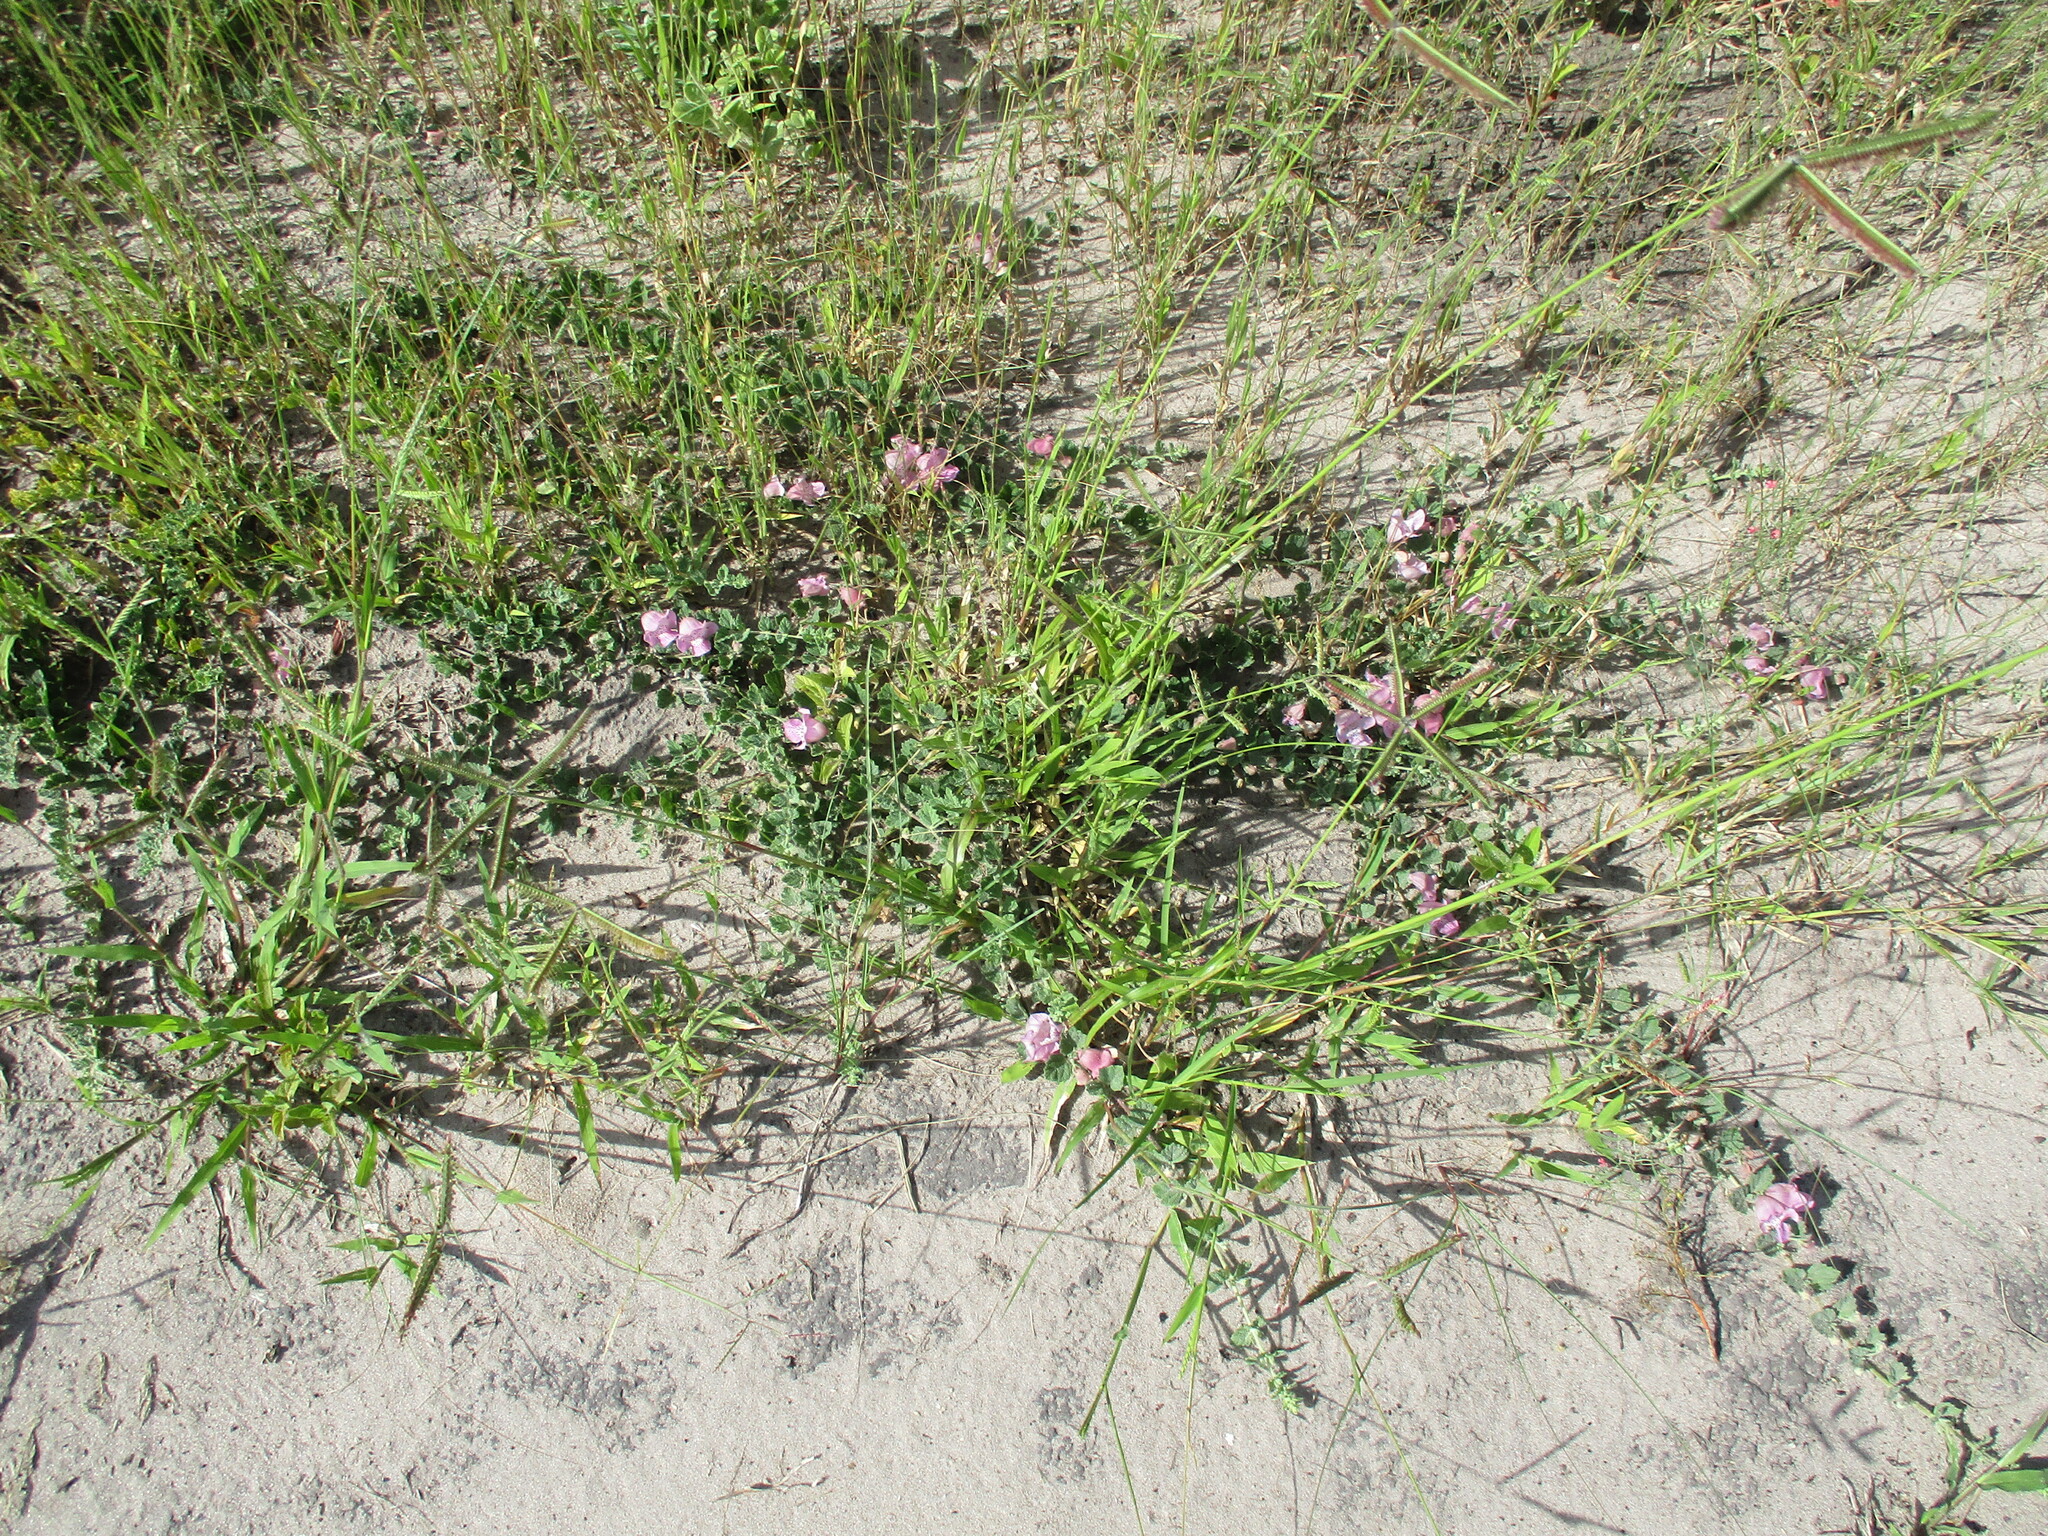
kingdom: Plantae
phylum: Tracheophyta
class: Magnoliopsida
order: Lamiales
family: Pedaliaceae
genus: Dicerocaryum
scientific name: Dicerocaryum eriocarpum
